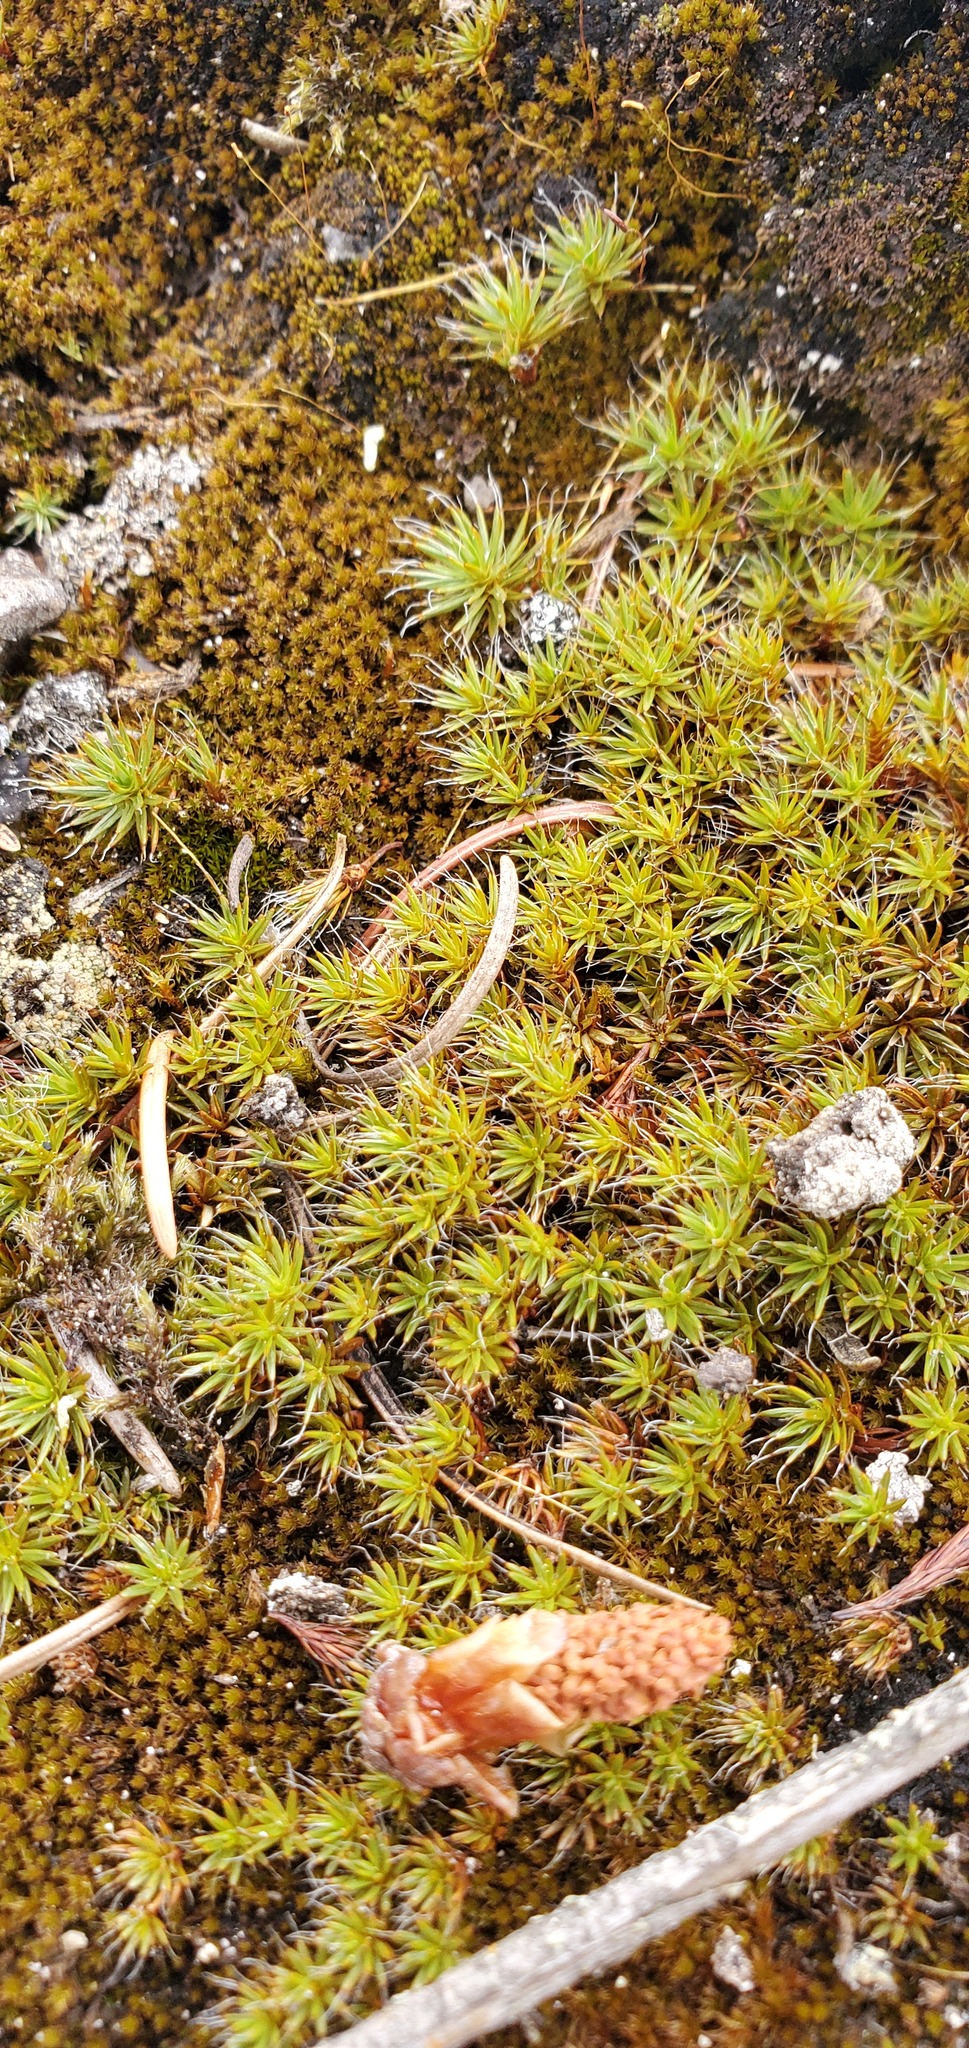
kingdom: Plantae
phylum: Bryophyta
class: Polytrichopsida
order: Polytrichales
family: Polytrichaceae
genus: Polytrichum
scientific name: Polytrichum piliferum
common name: Bristly haircap
